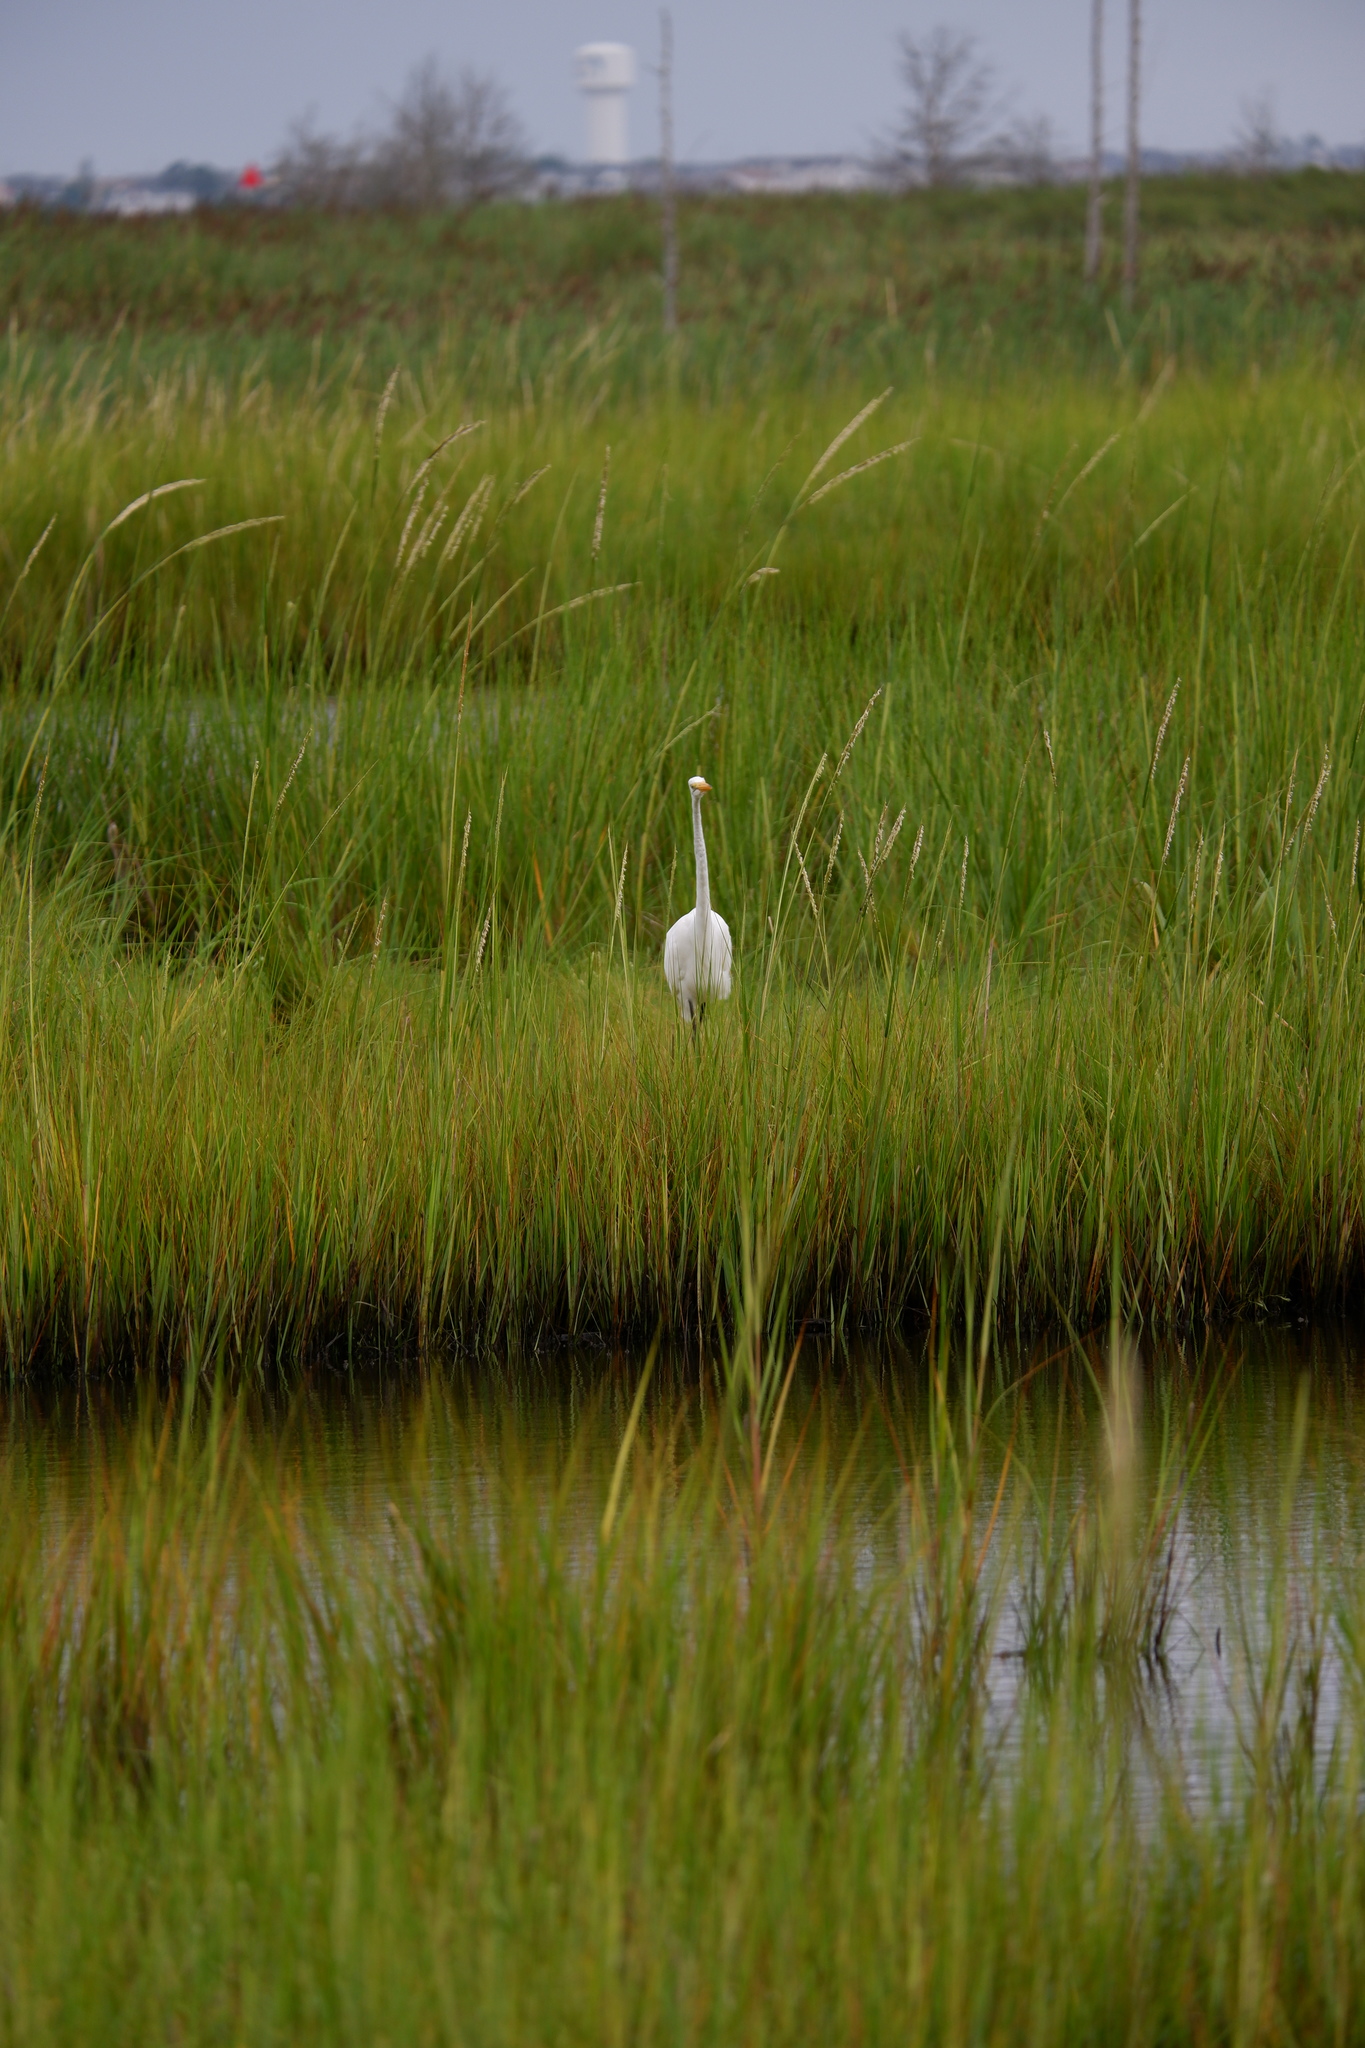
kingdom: Animalia
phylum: Chordata
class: Aves
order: Pelecaniformes
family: Ardeidae
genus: Ardea
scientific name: Ardea alba
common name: Great egret
